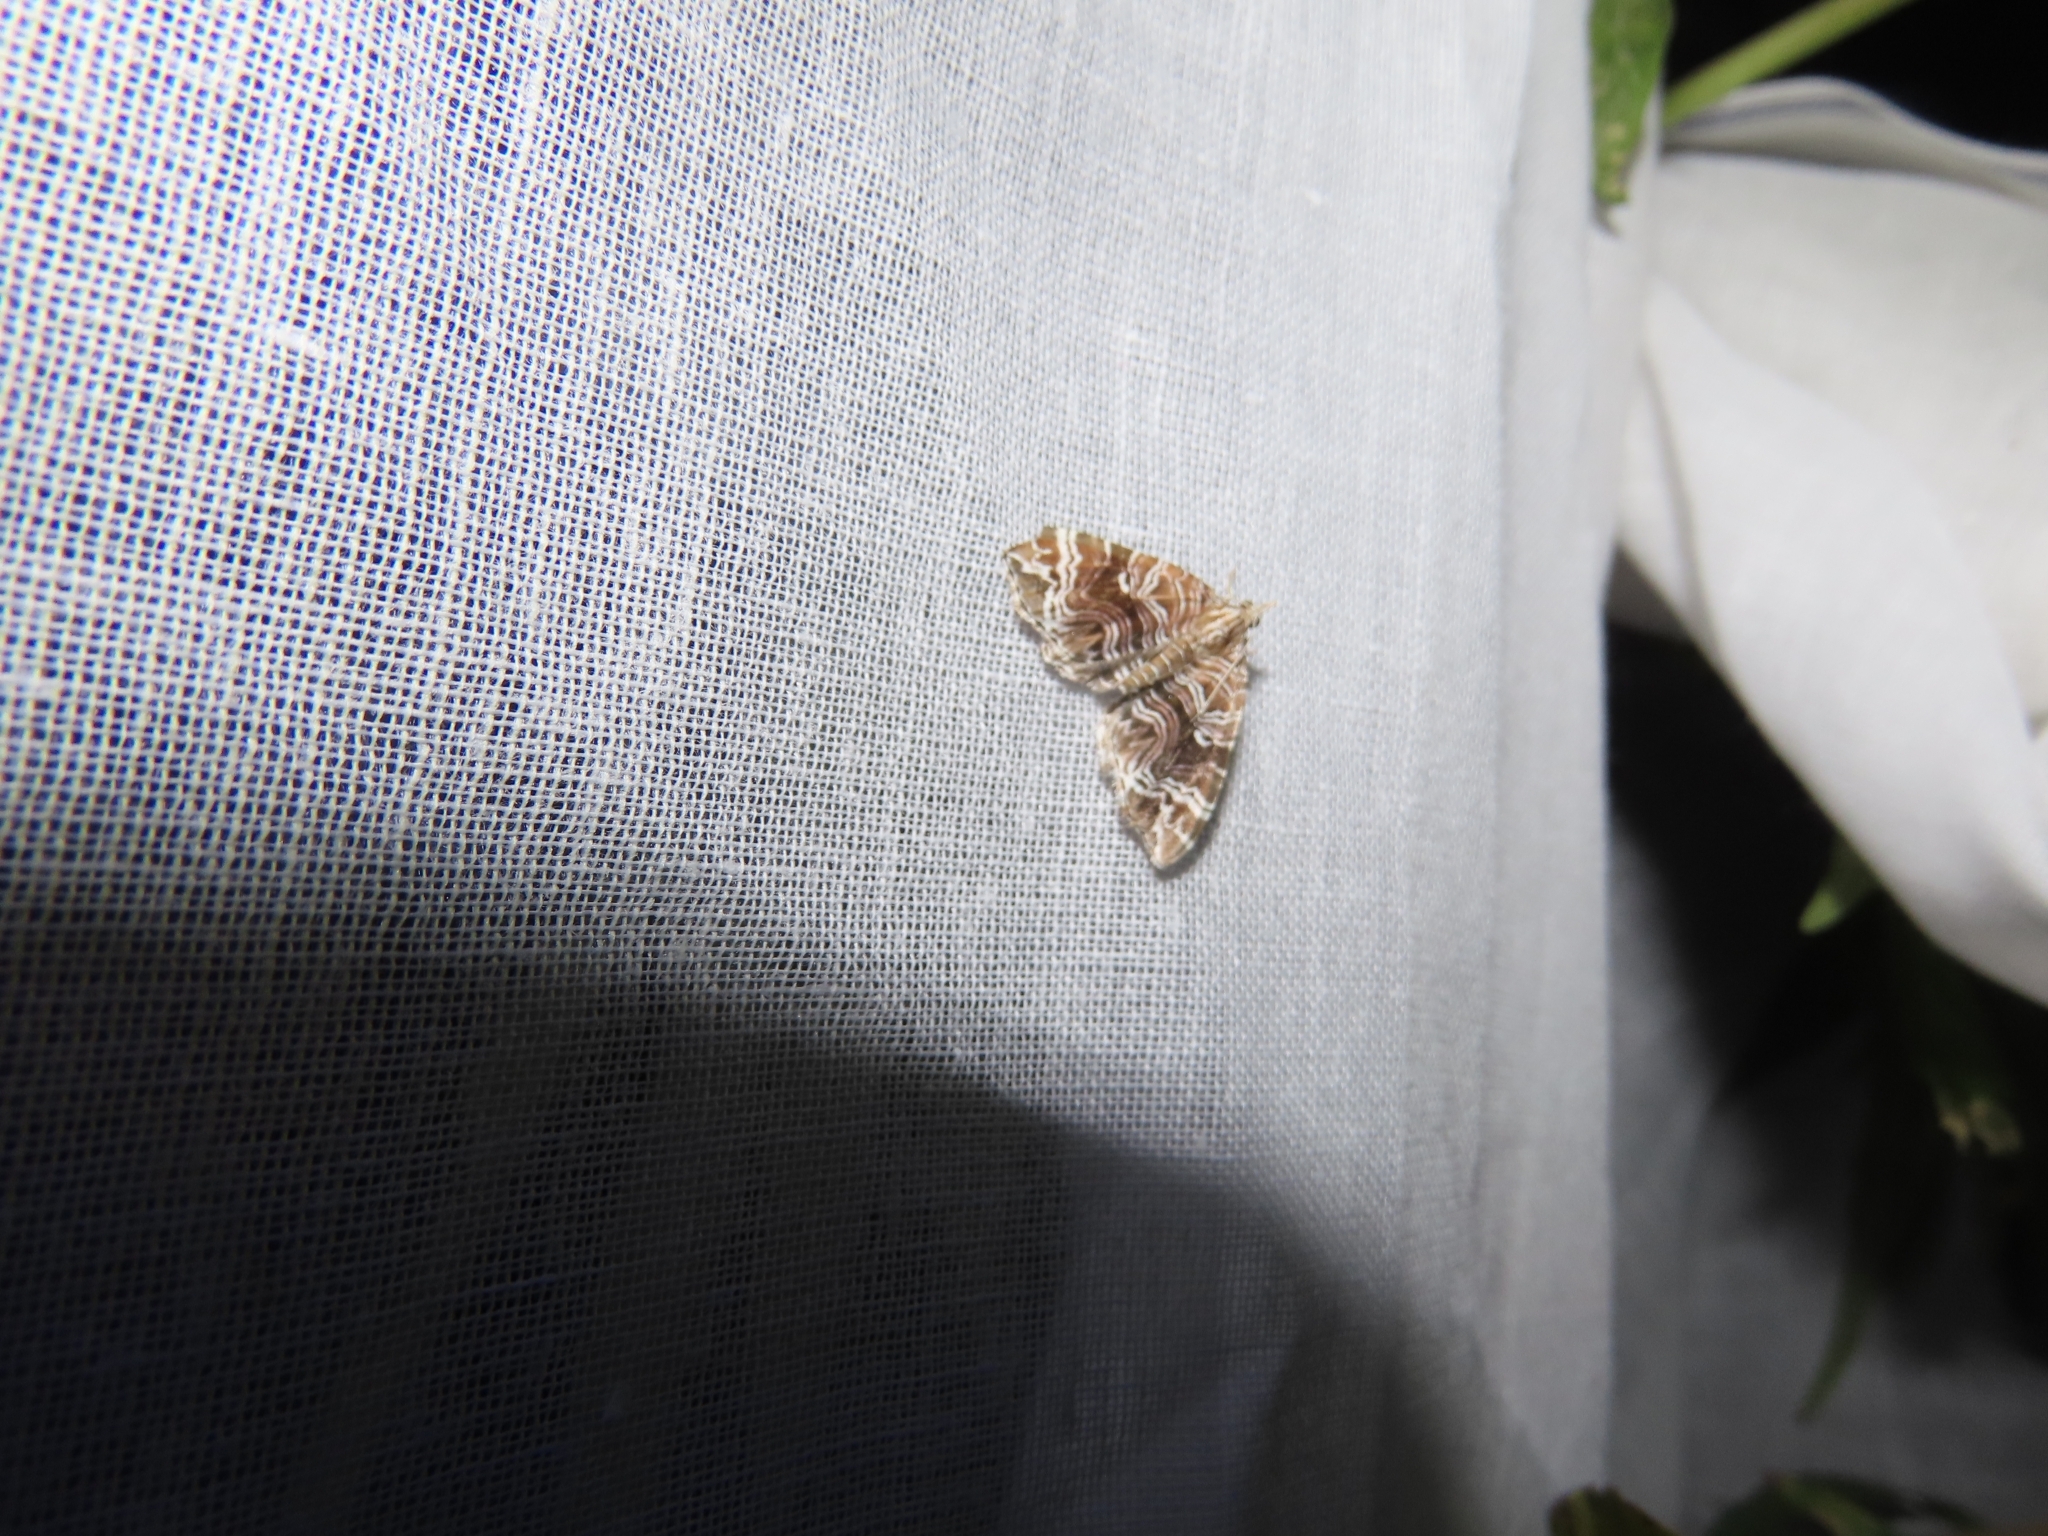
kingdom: Animalia
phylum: Arthropoda
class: Insecta
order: Lepidoptera
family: Geometridae
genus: Microlygris
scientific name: Microlygris multistriata
